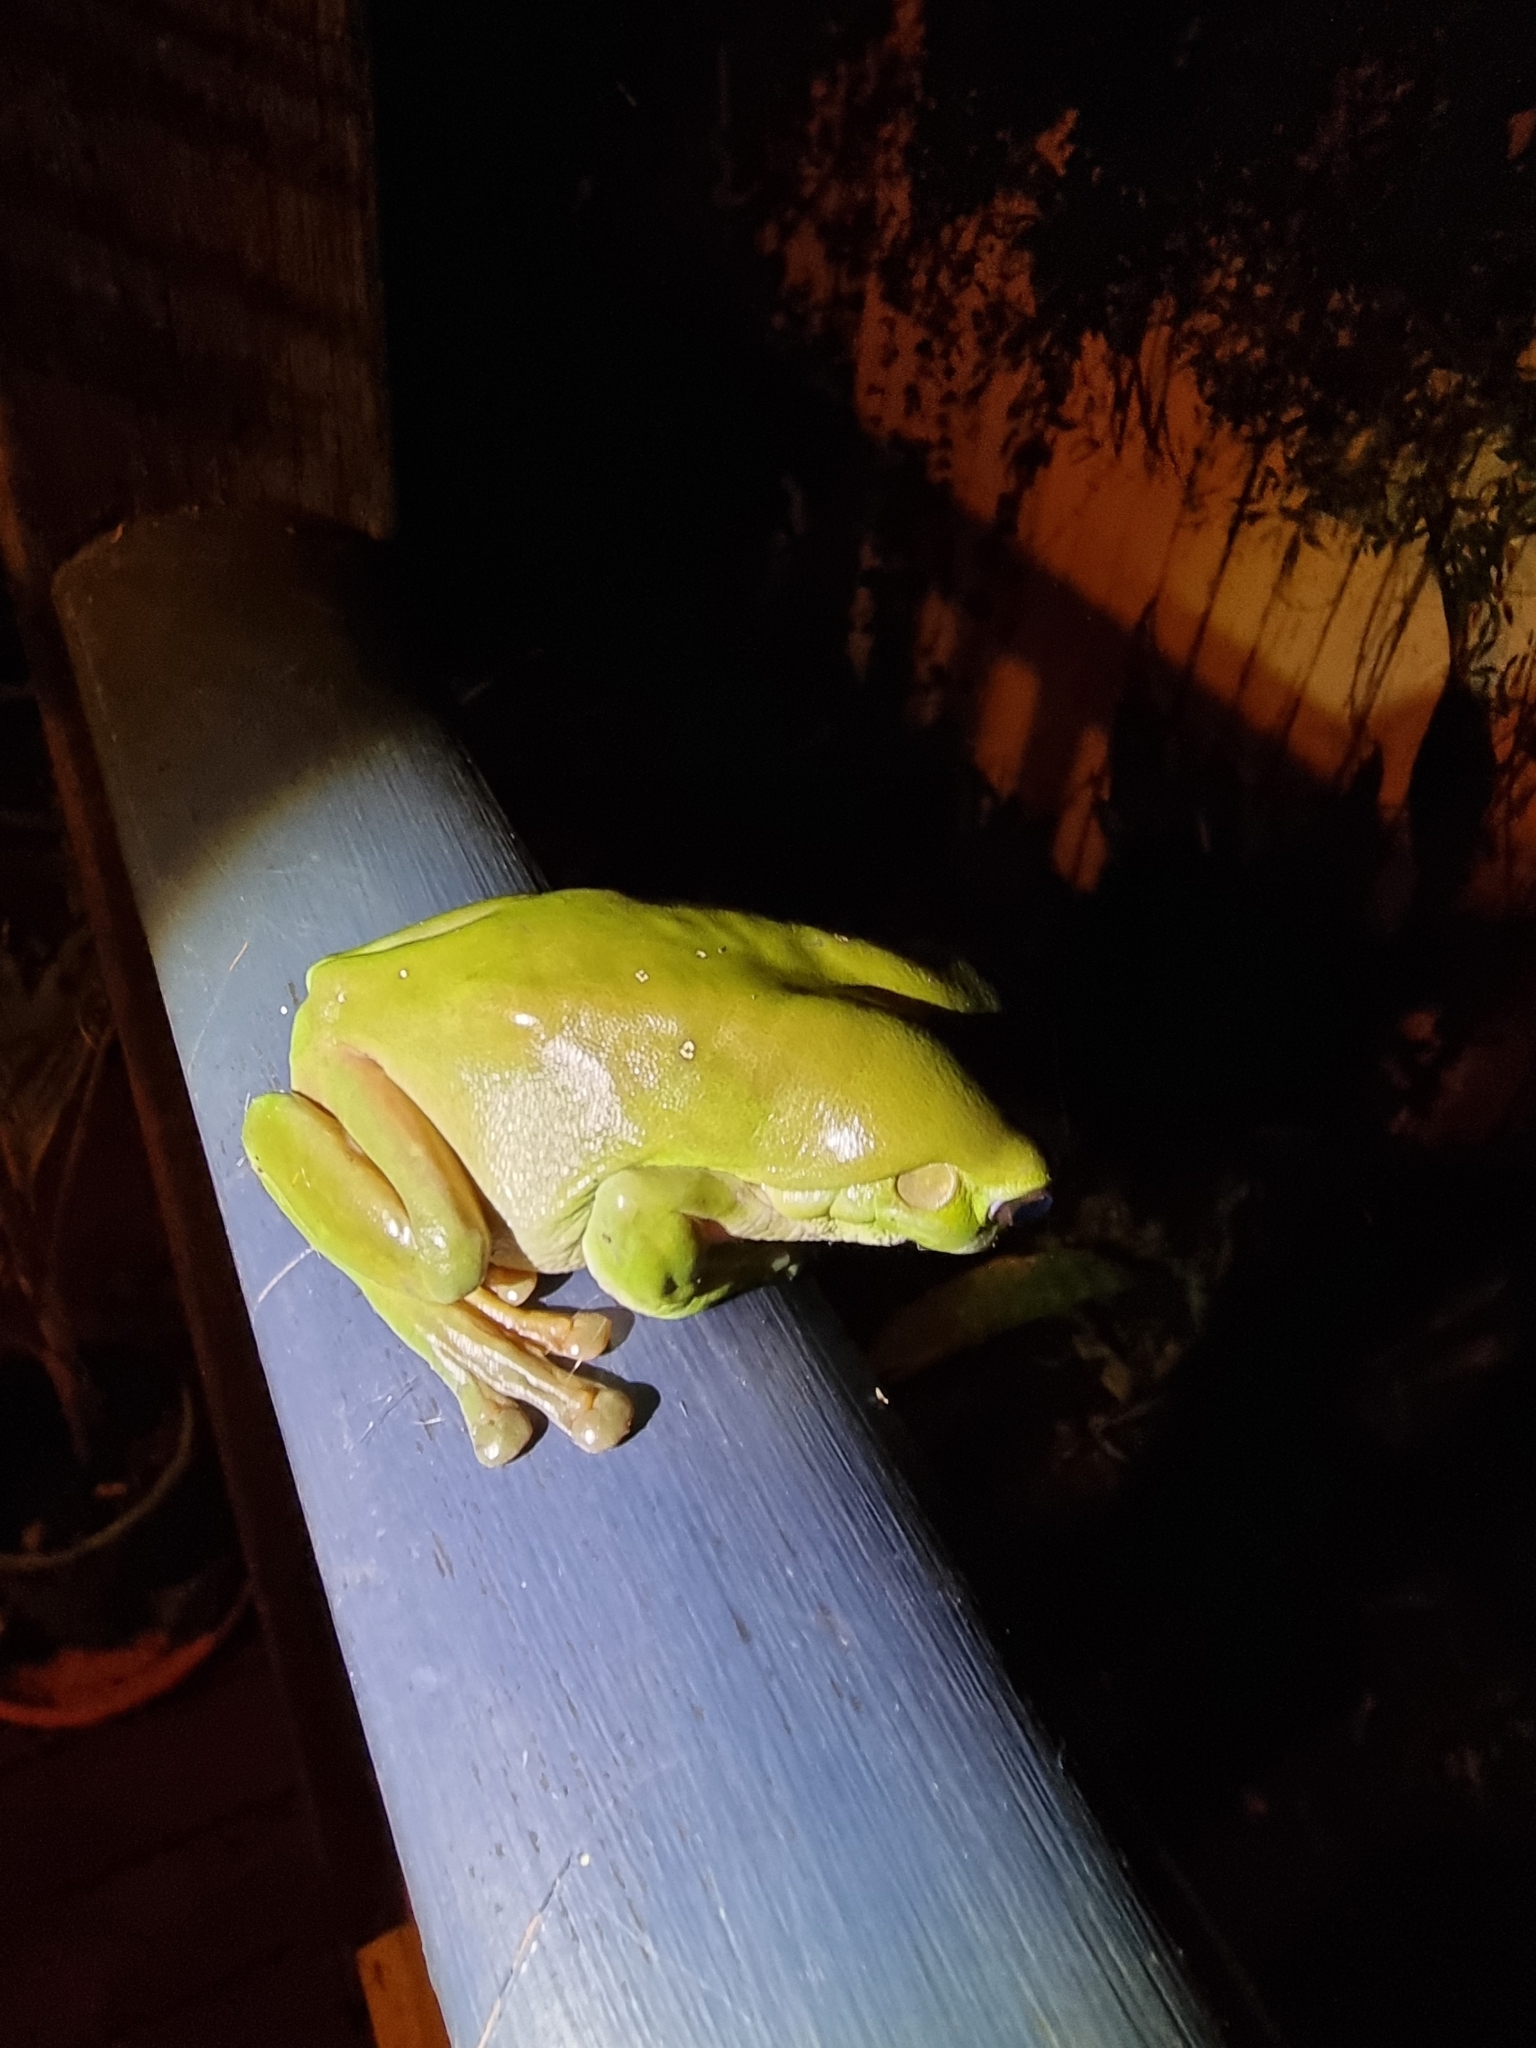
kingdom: Animalia
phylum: Chordata
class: Amphibia
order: Anura
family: Pelodryadidae
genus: Ranoidea
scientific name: Ranoidea caerulea
